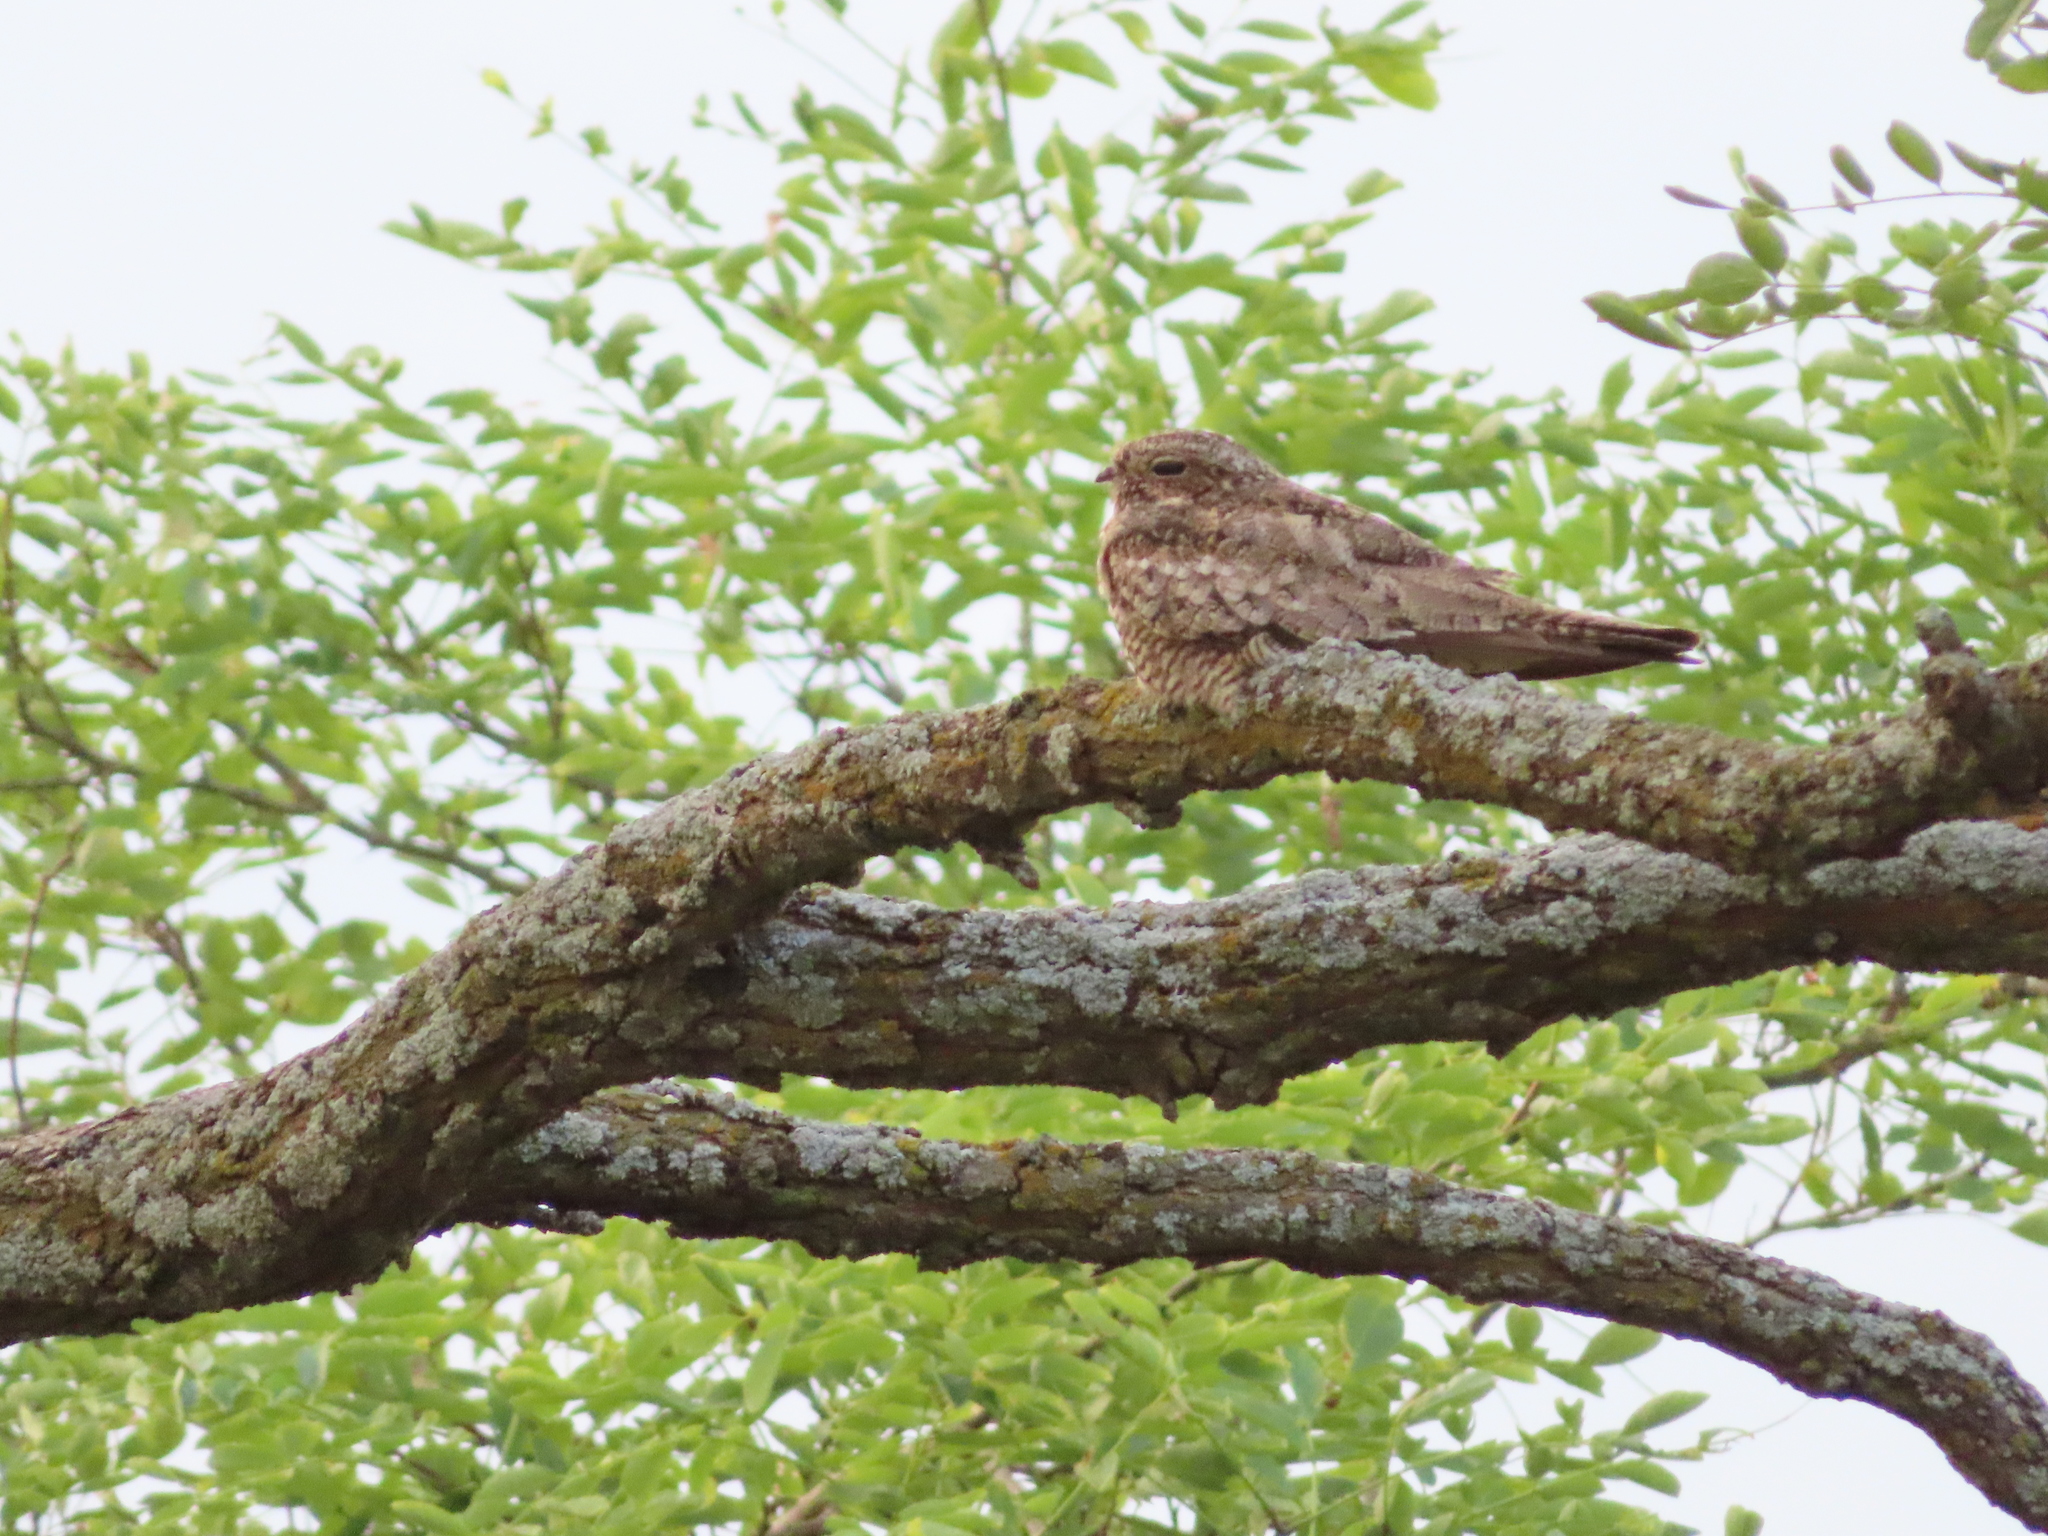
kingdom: Animalia
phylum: Chordata
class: Aves
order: Caprimulgiformes
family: Caprimulgidae
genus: Chordeiles
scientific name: Chordeiles minor
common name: Common nighthawk
